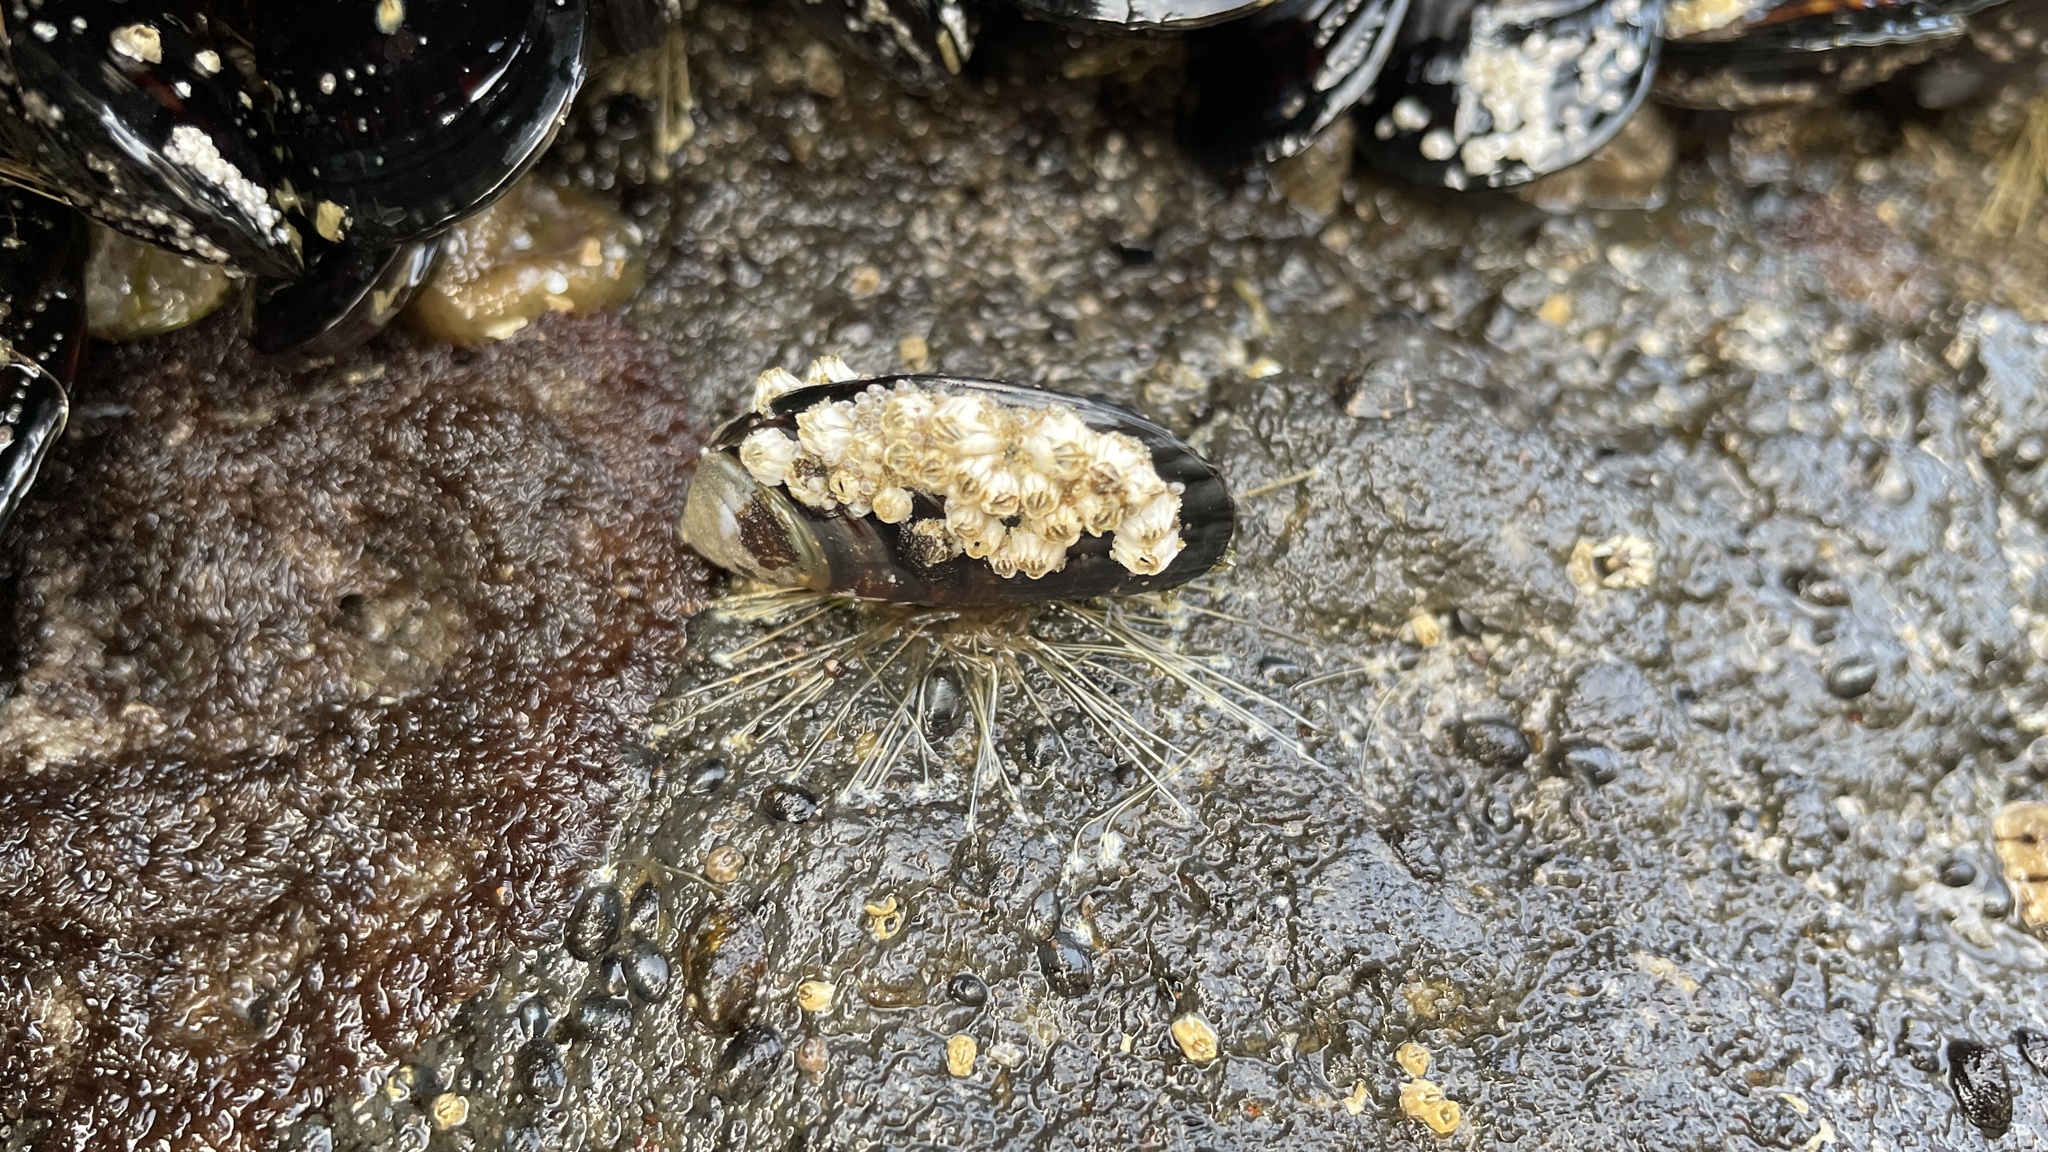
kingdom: Animalia
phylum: Mollusca
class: Bivalvia
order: Mytilida
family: Mytilidae
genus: Mytilus
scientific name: Mytilus californianus
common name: California mussel
